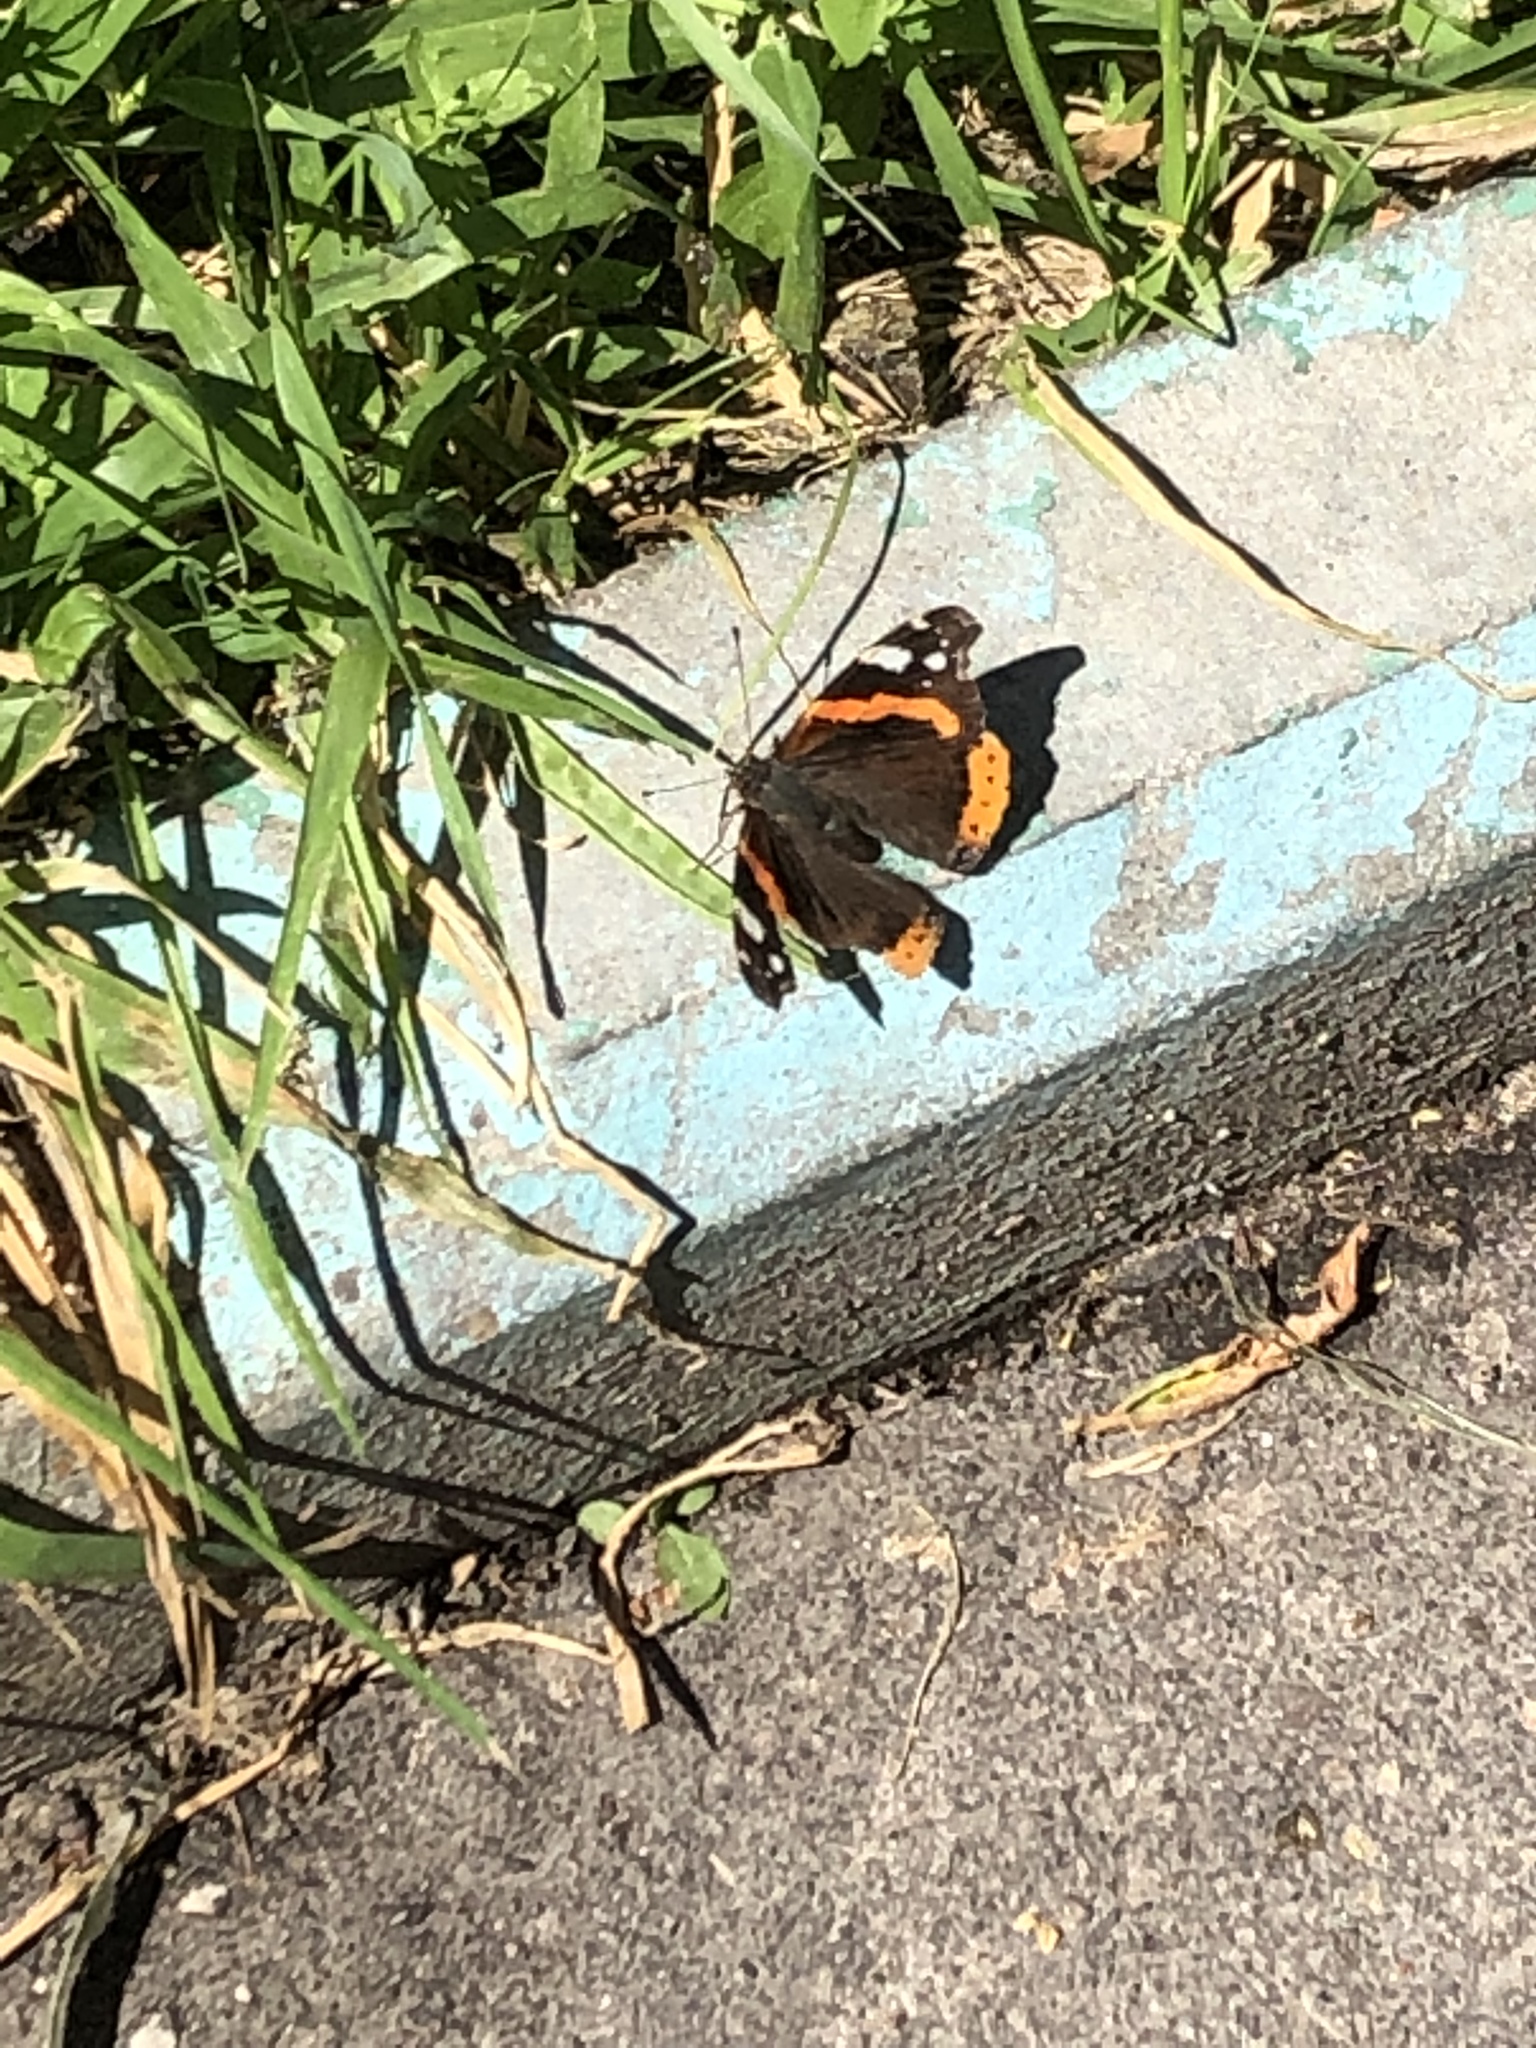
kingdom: Animalia
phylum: Arthropoda
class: Insecta
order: Lepidoptera
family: Nymphalidae
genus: Vanessa
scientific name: Vanessa atalanta
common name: Red admiral
